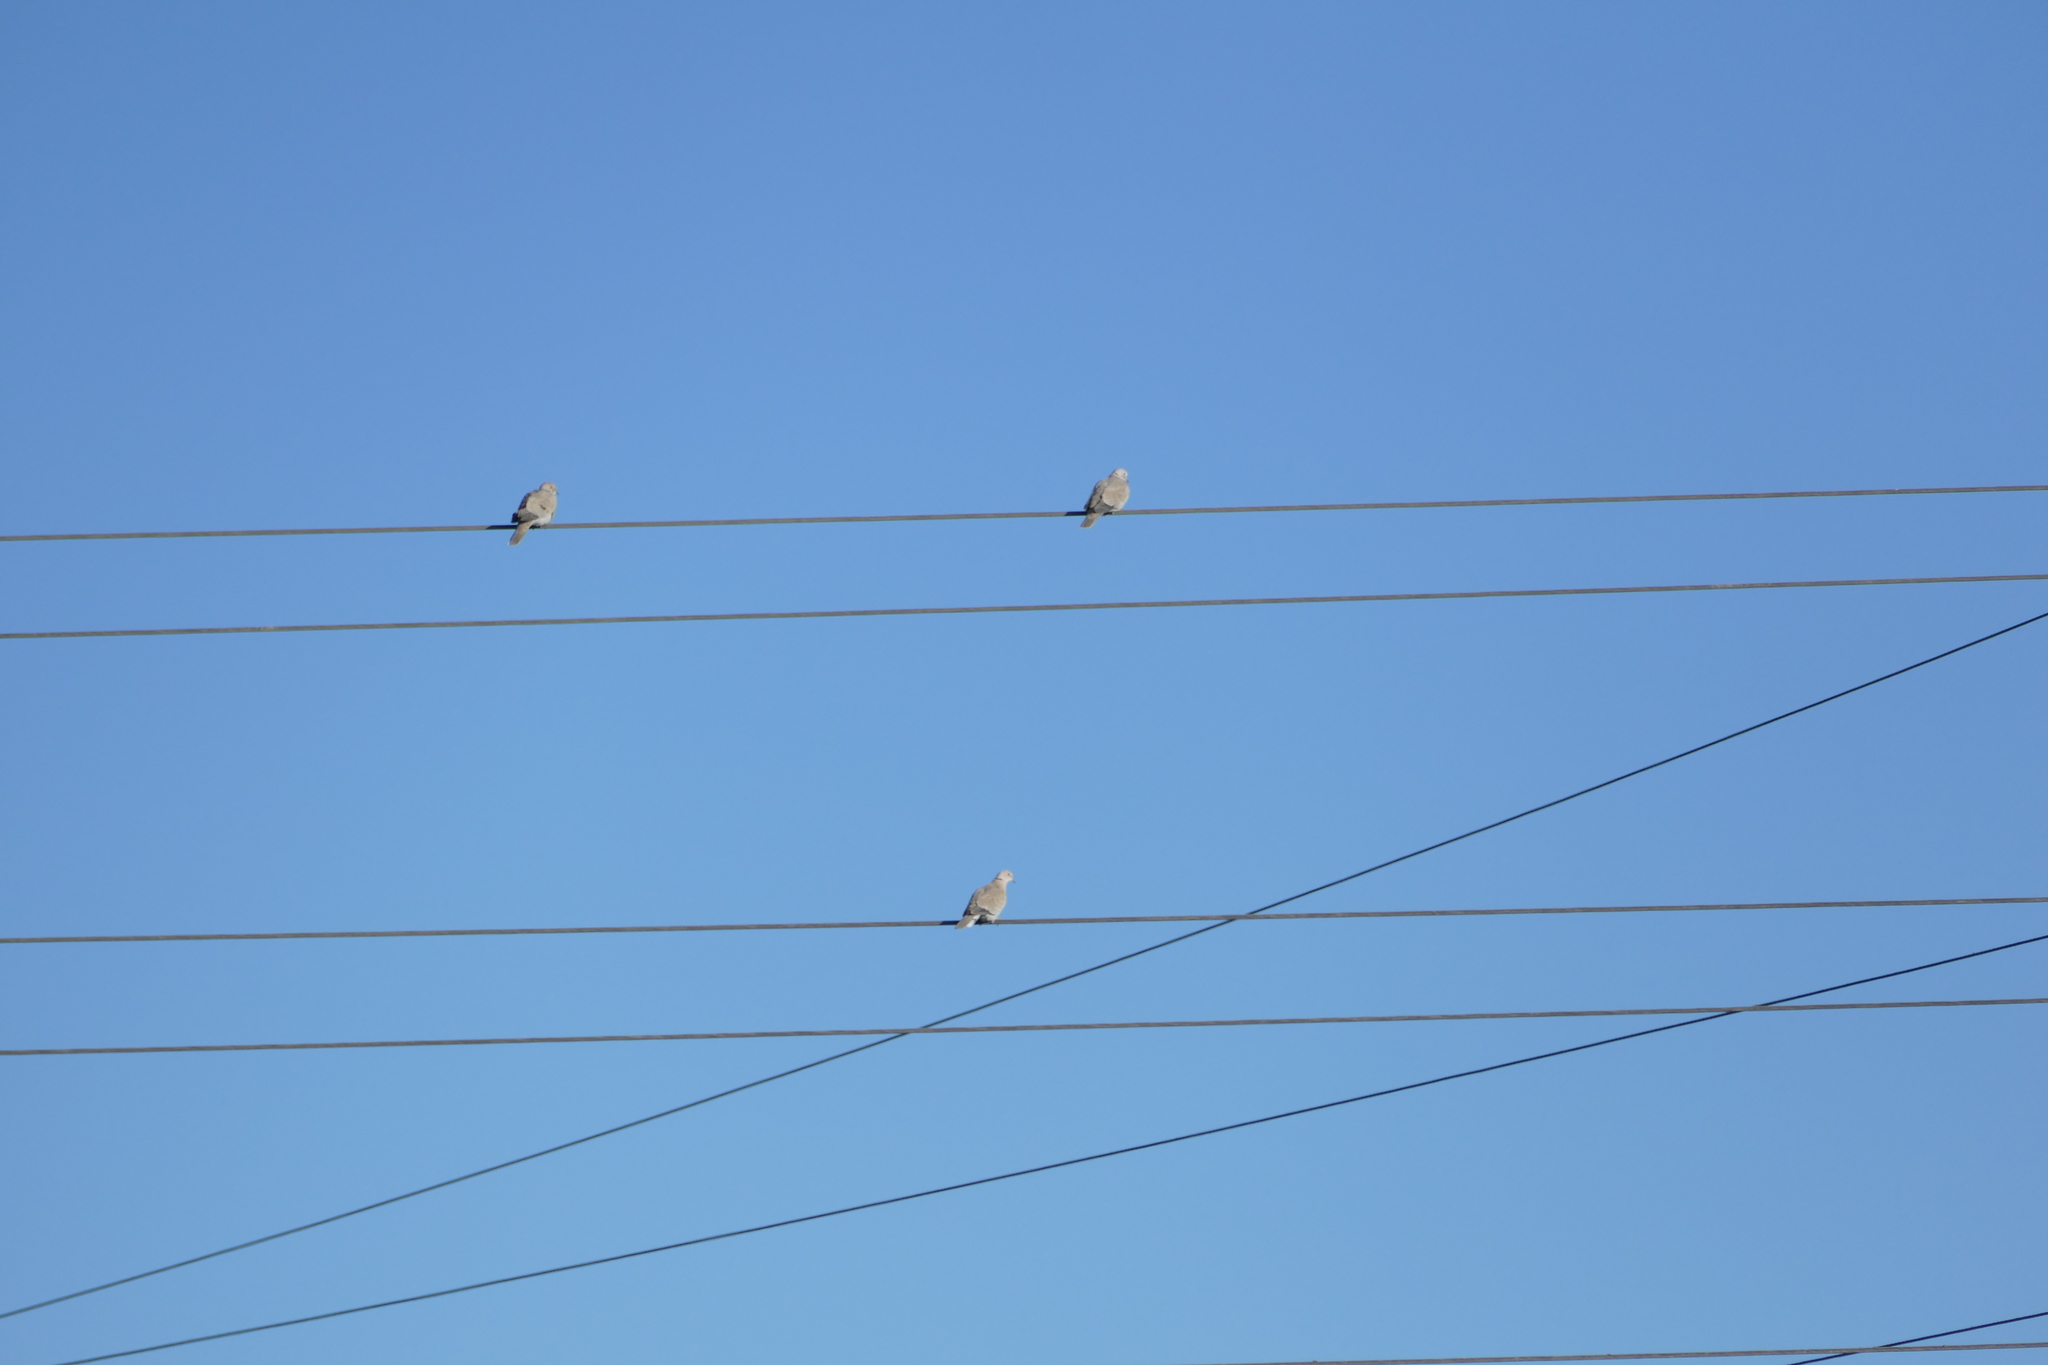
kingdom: Animalia
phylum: Chordata
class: Aves
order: Columbiformes
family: Columbidae
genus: Streptopelia
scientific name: Streptopelia decaocto
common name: Eurasian collared dove
